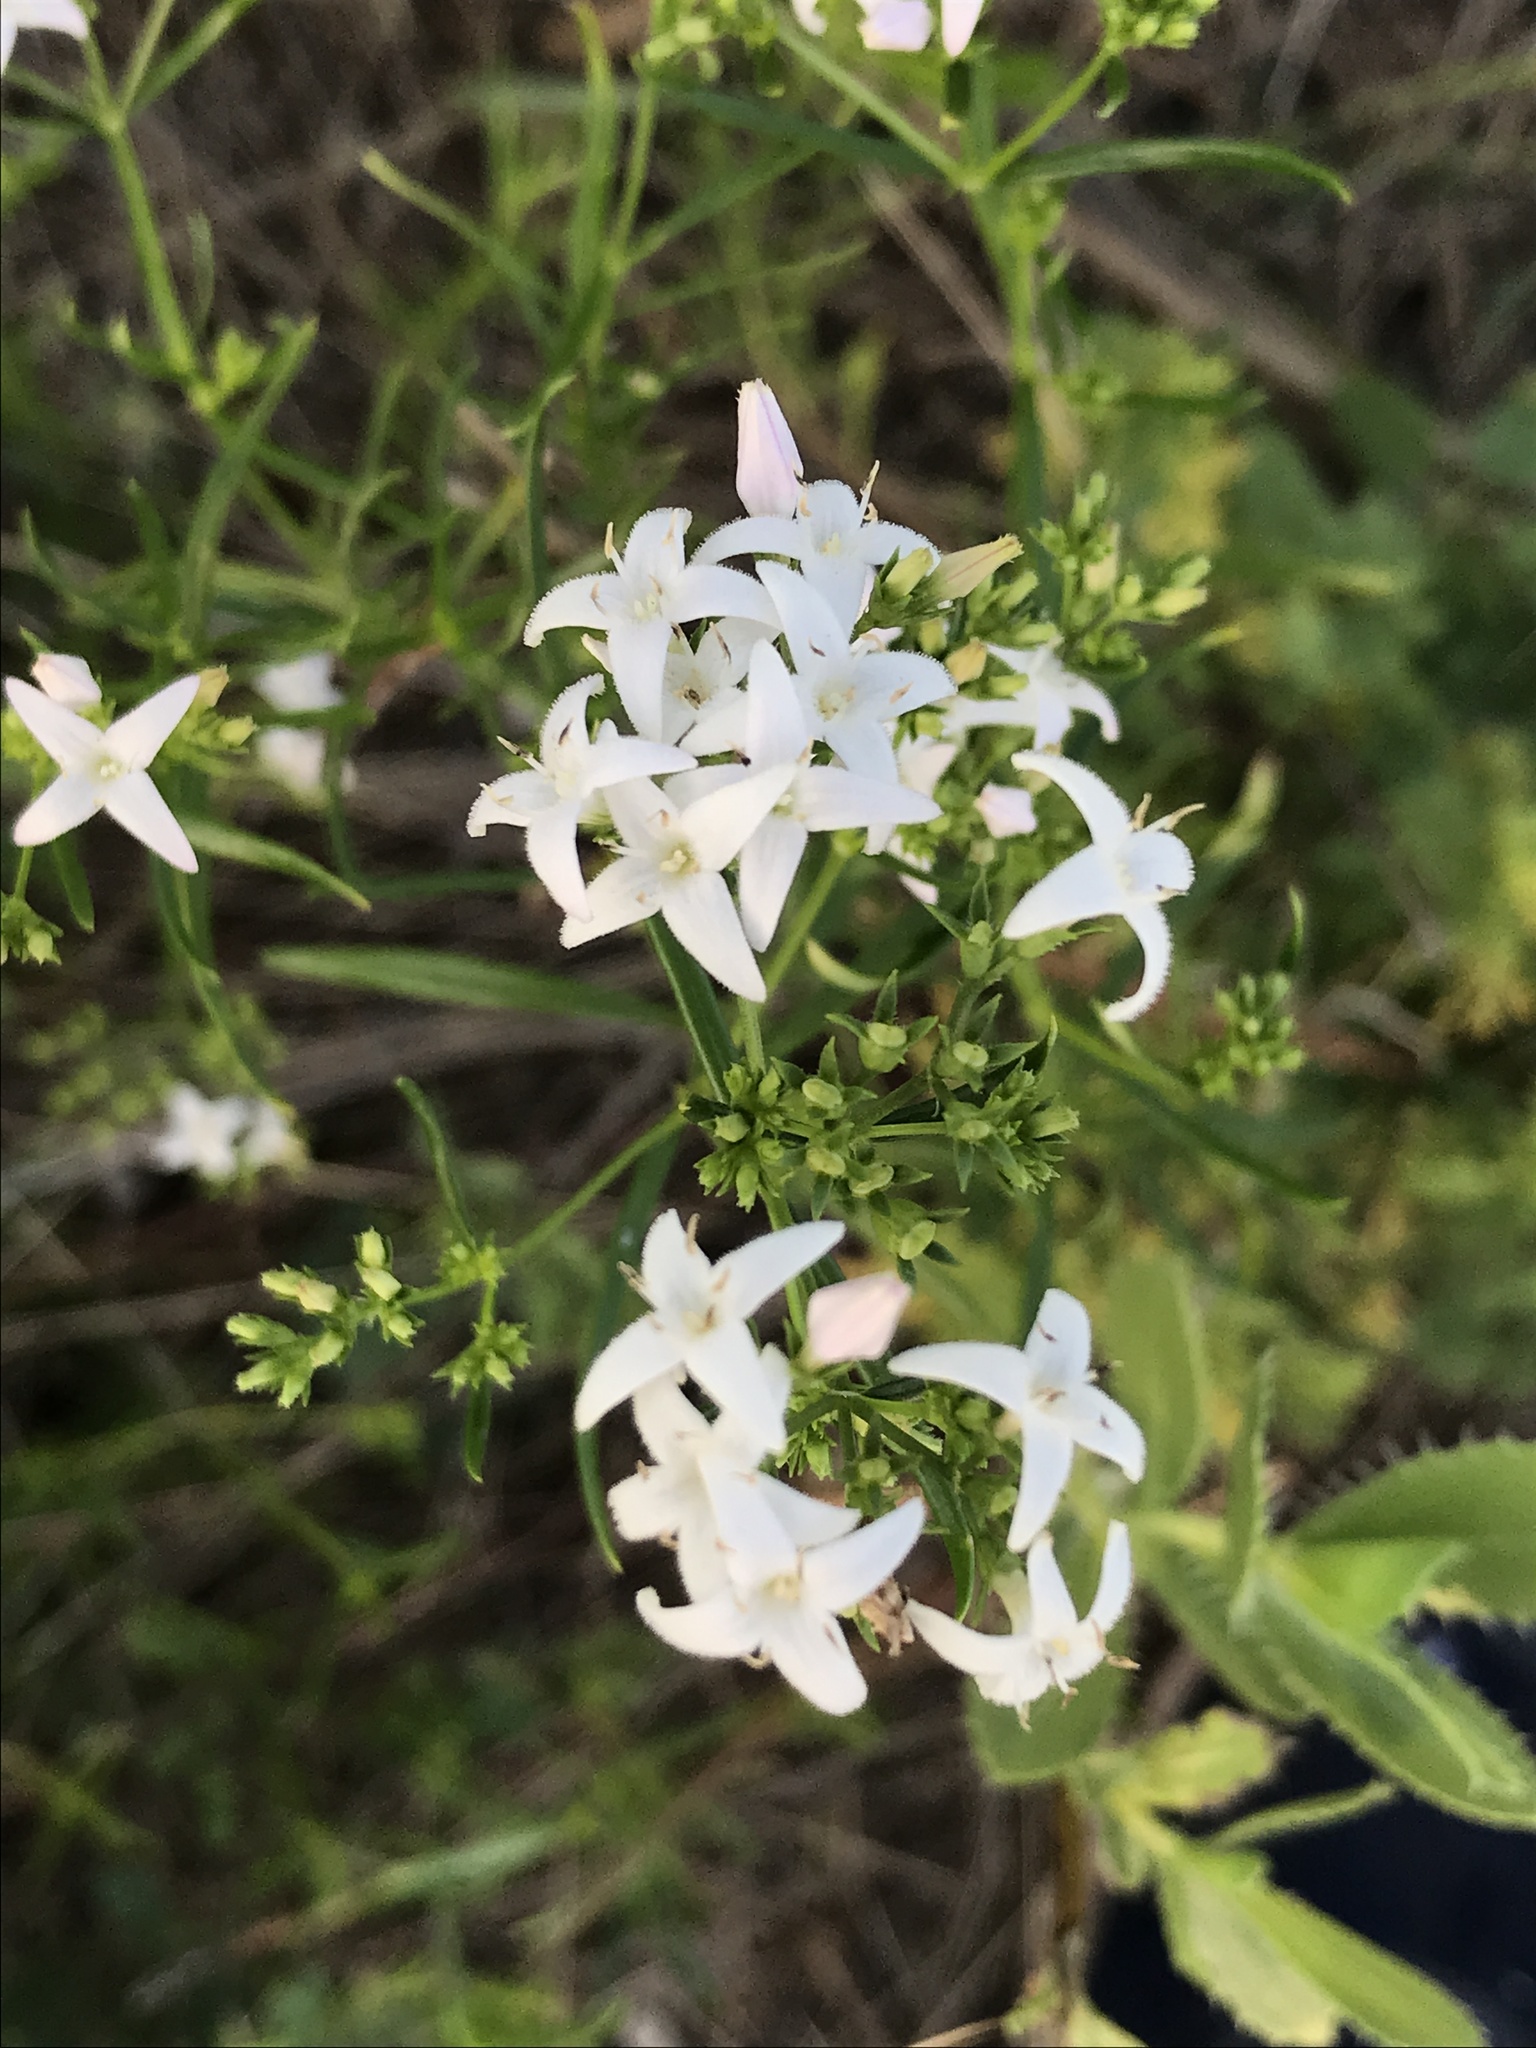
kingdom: Plantae
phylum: Tracheophyta
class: Magnoliopsida
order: Gentianales
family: Rubiaceae
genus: Stenaria
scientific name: Stenaria nigricans
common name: Diamondflowers
